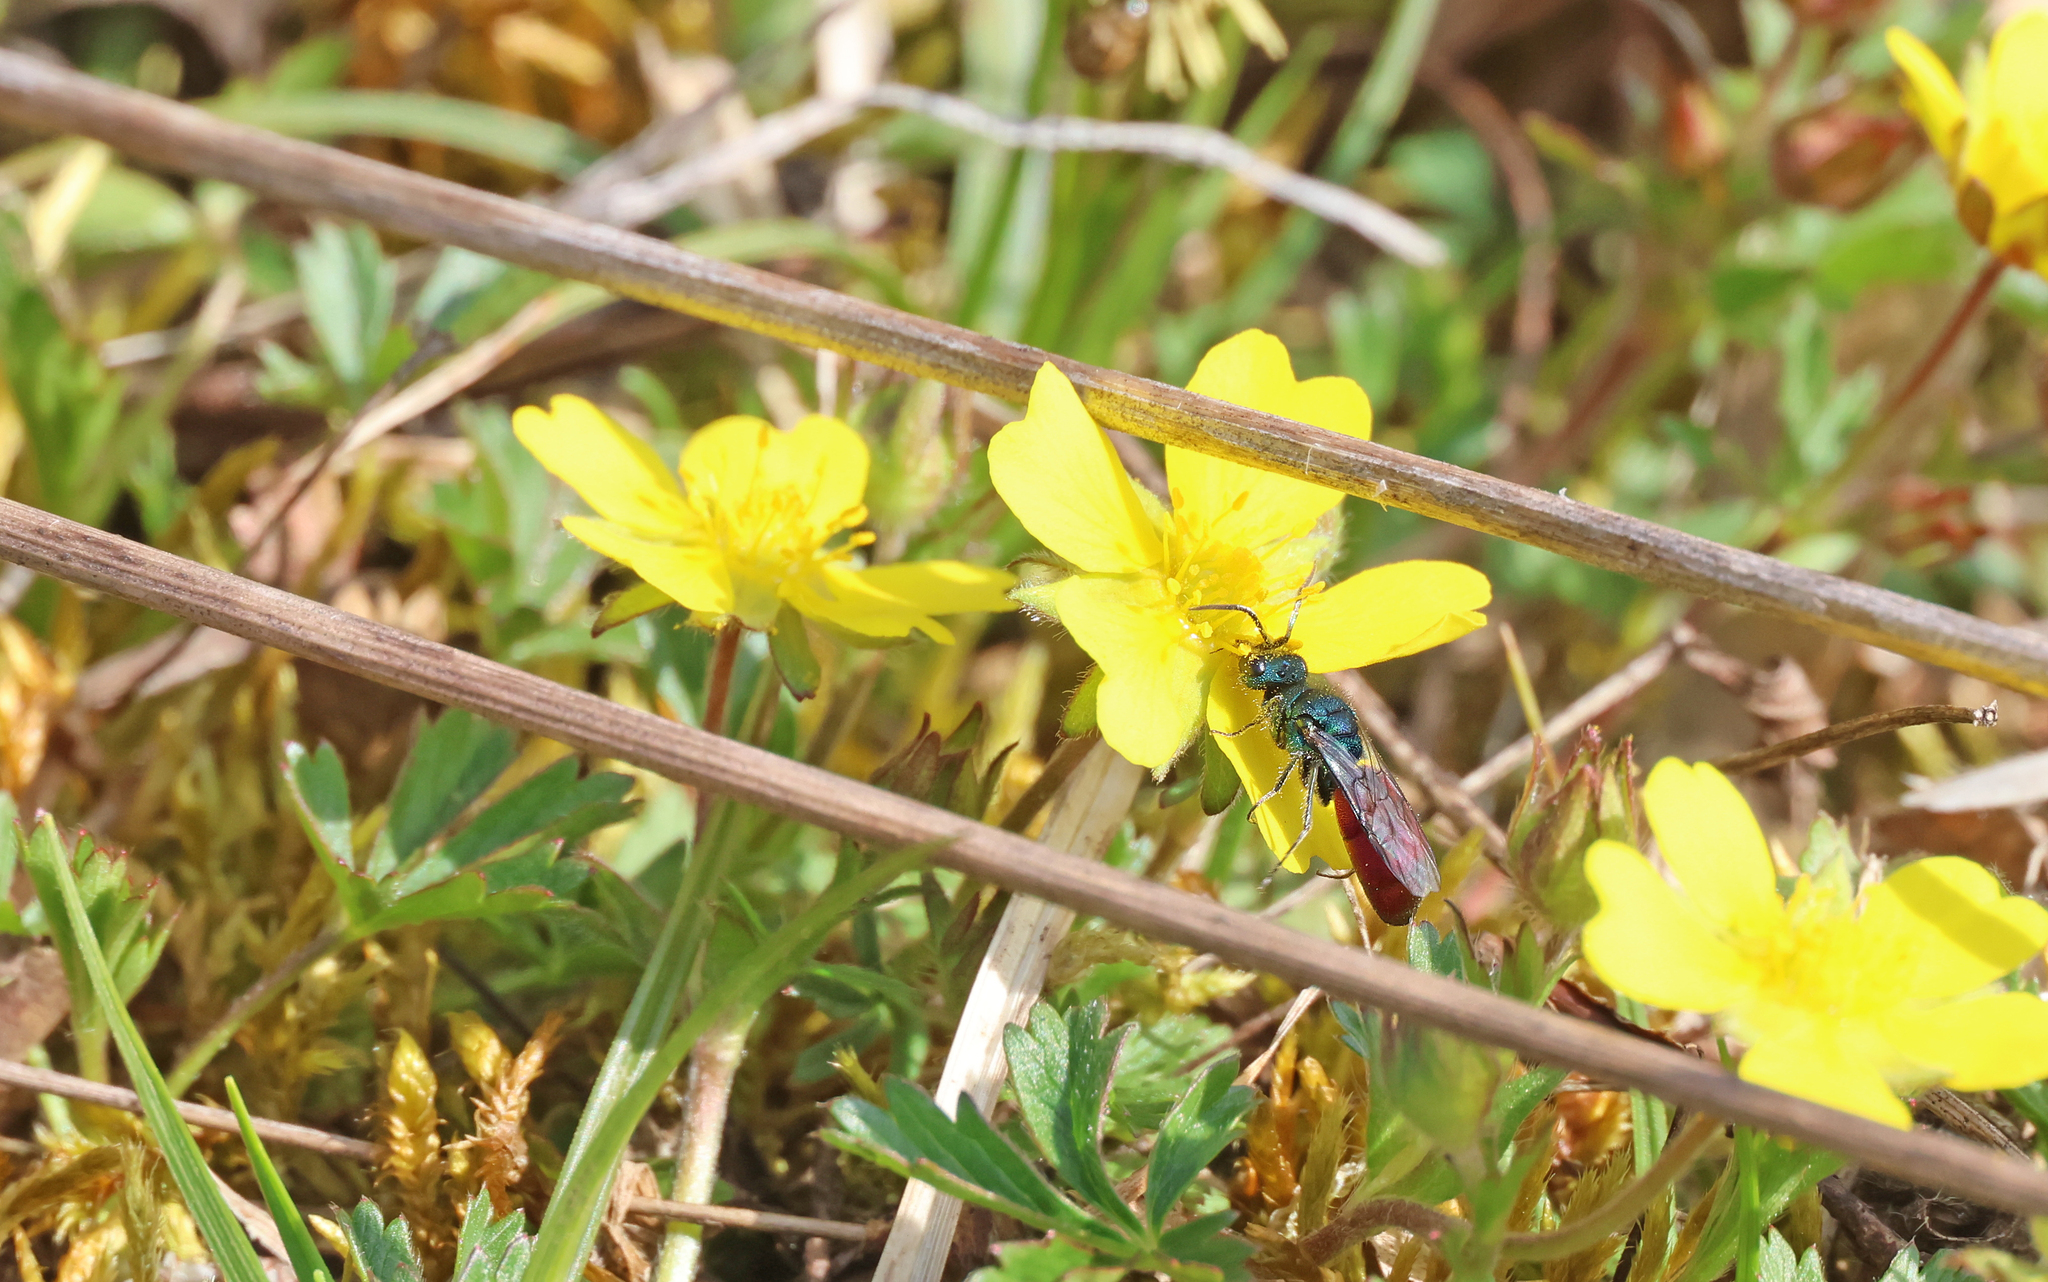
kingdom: Animalia
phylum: Arthropoda
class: Insecta
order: Hymenoptera
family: Chrysididae
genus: Chrysura
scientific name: Chrysura trimaculata
